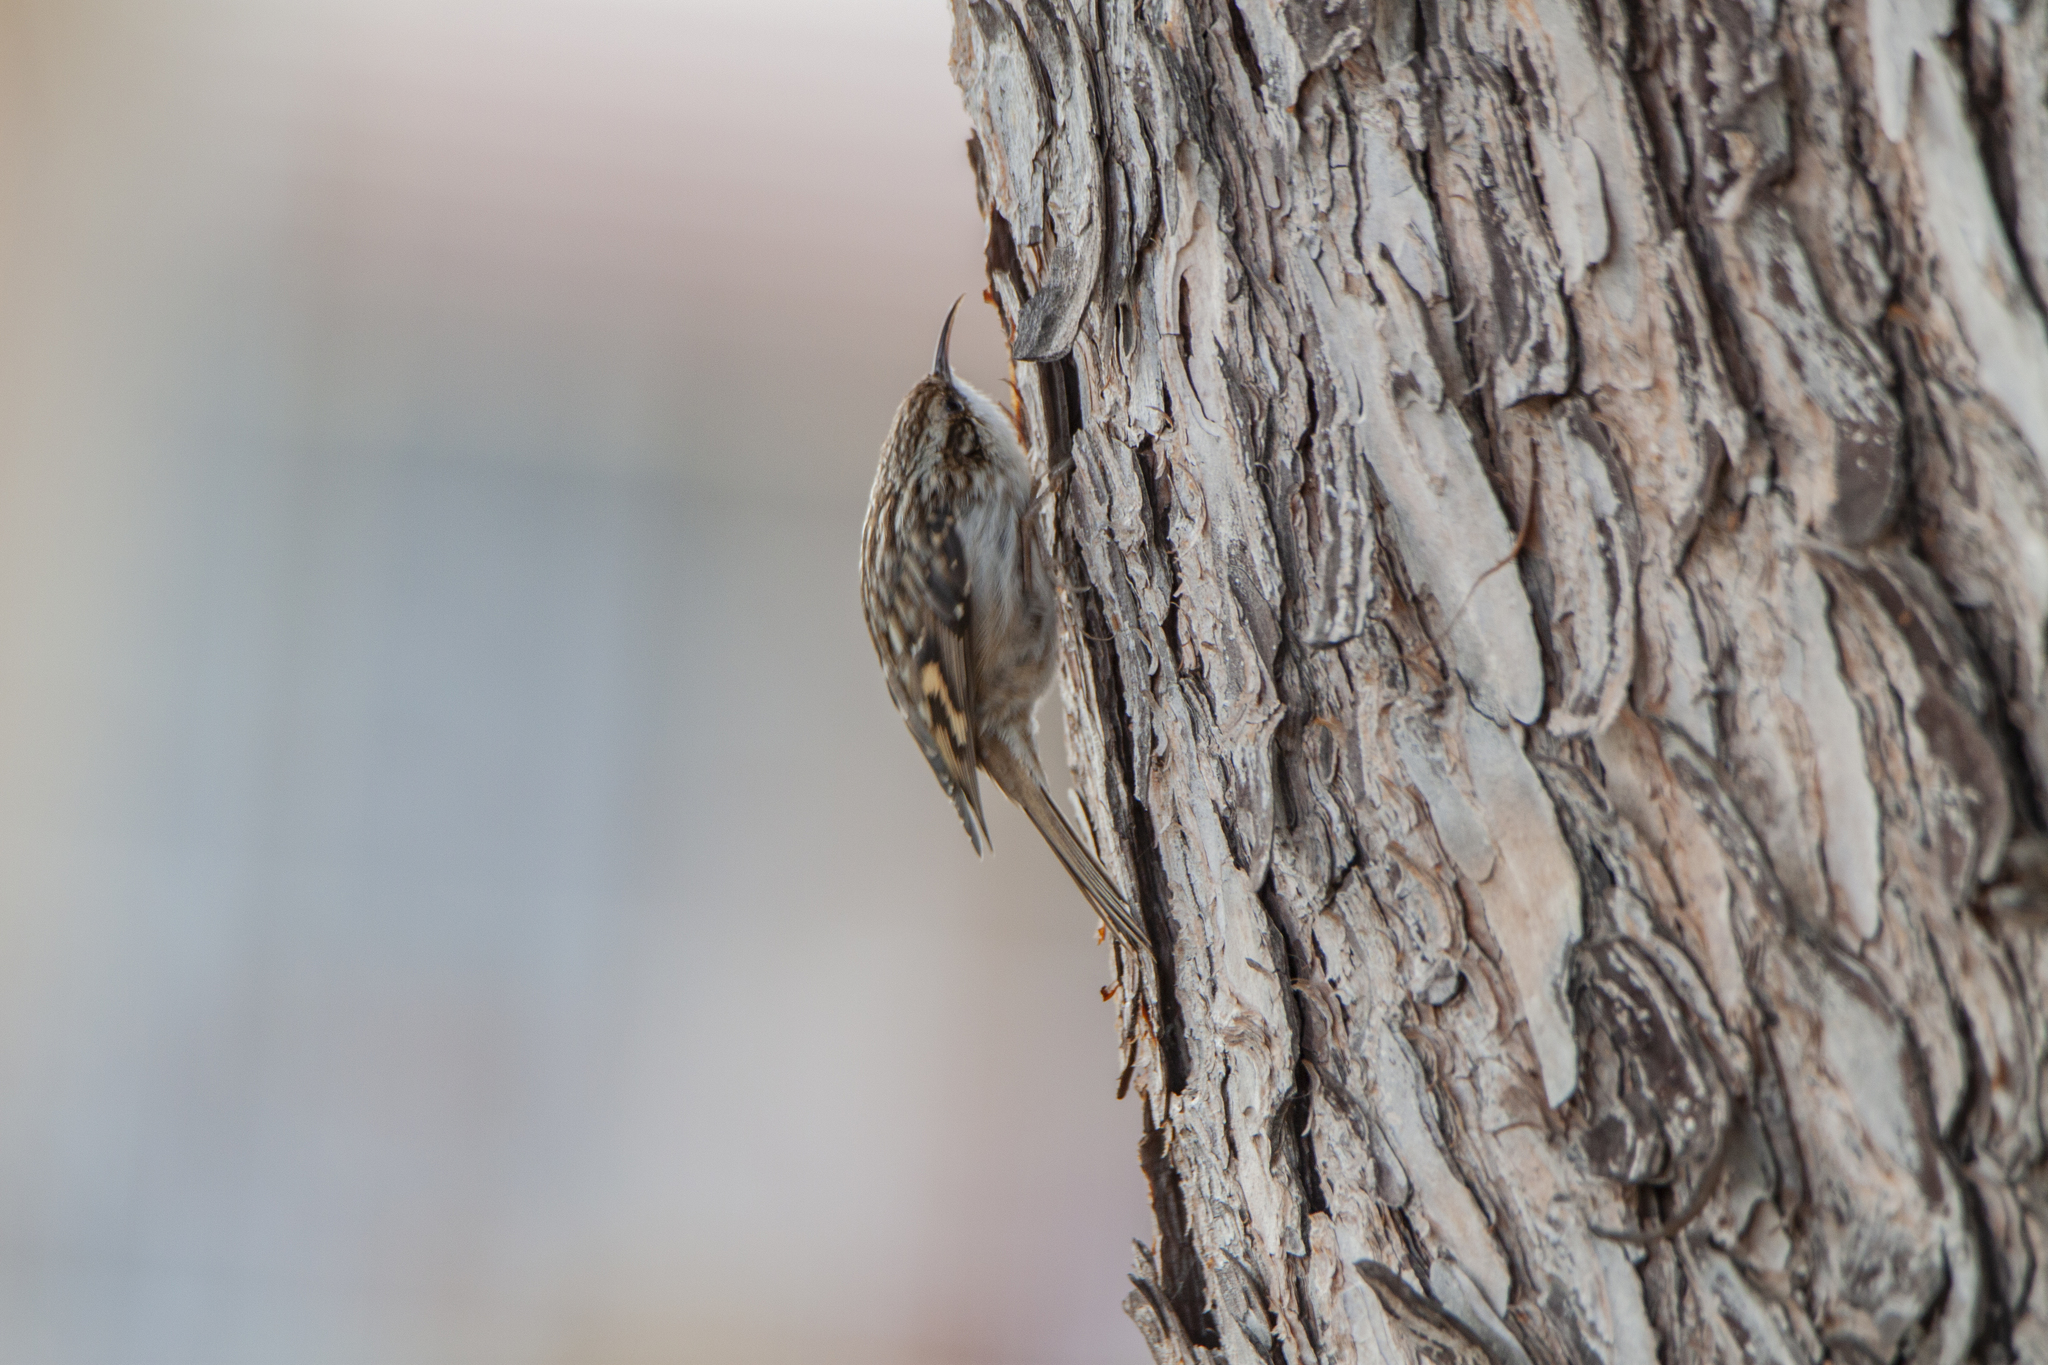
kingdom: Animalia
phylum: Chordata
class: Aves
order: Passeriformes
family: Certhiidae
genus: Certhia
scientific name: Certhia brachydactyla
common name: Short-toed treecreeper
